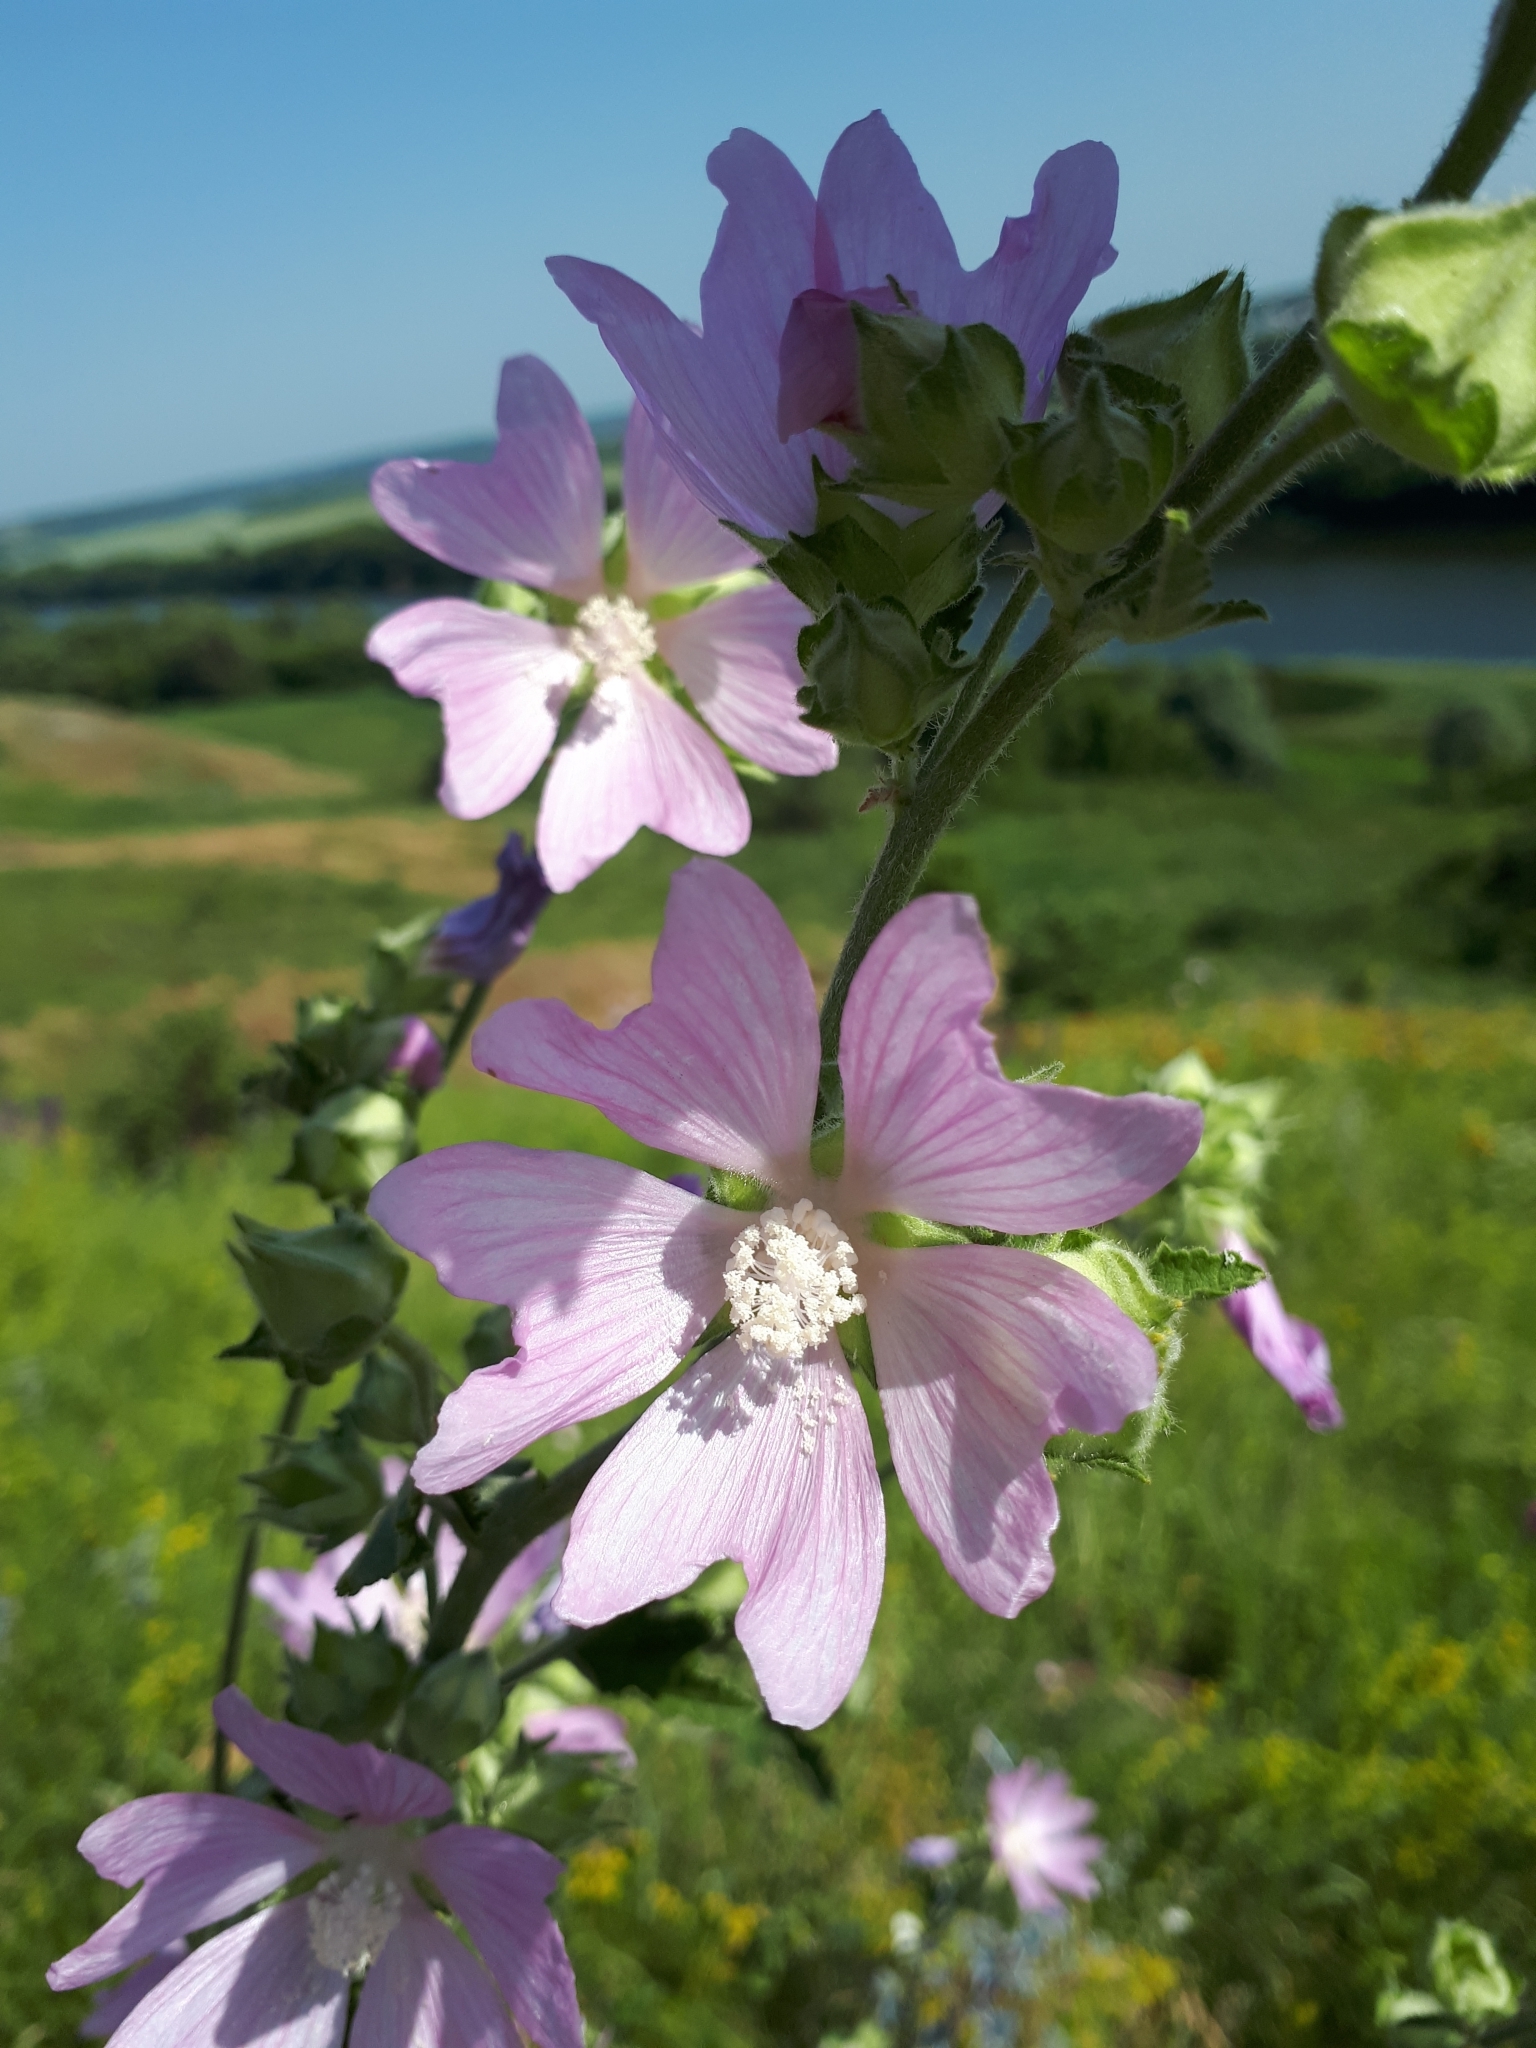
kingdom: Plantae
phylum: Tracheophyta
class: Magnoliopsida
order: Malvales
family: Malvaceae
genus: Malva
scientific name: Malva thuringiaca
